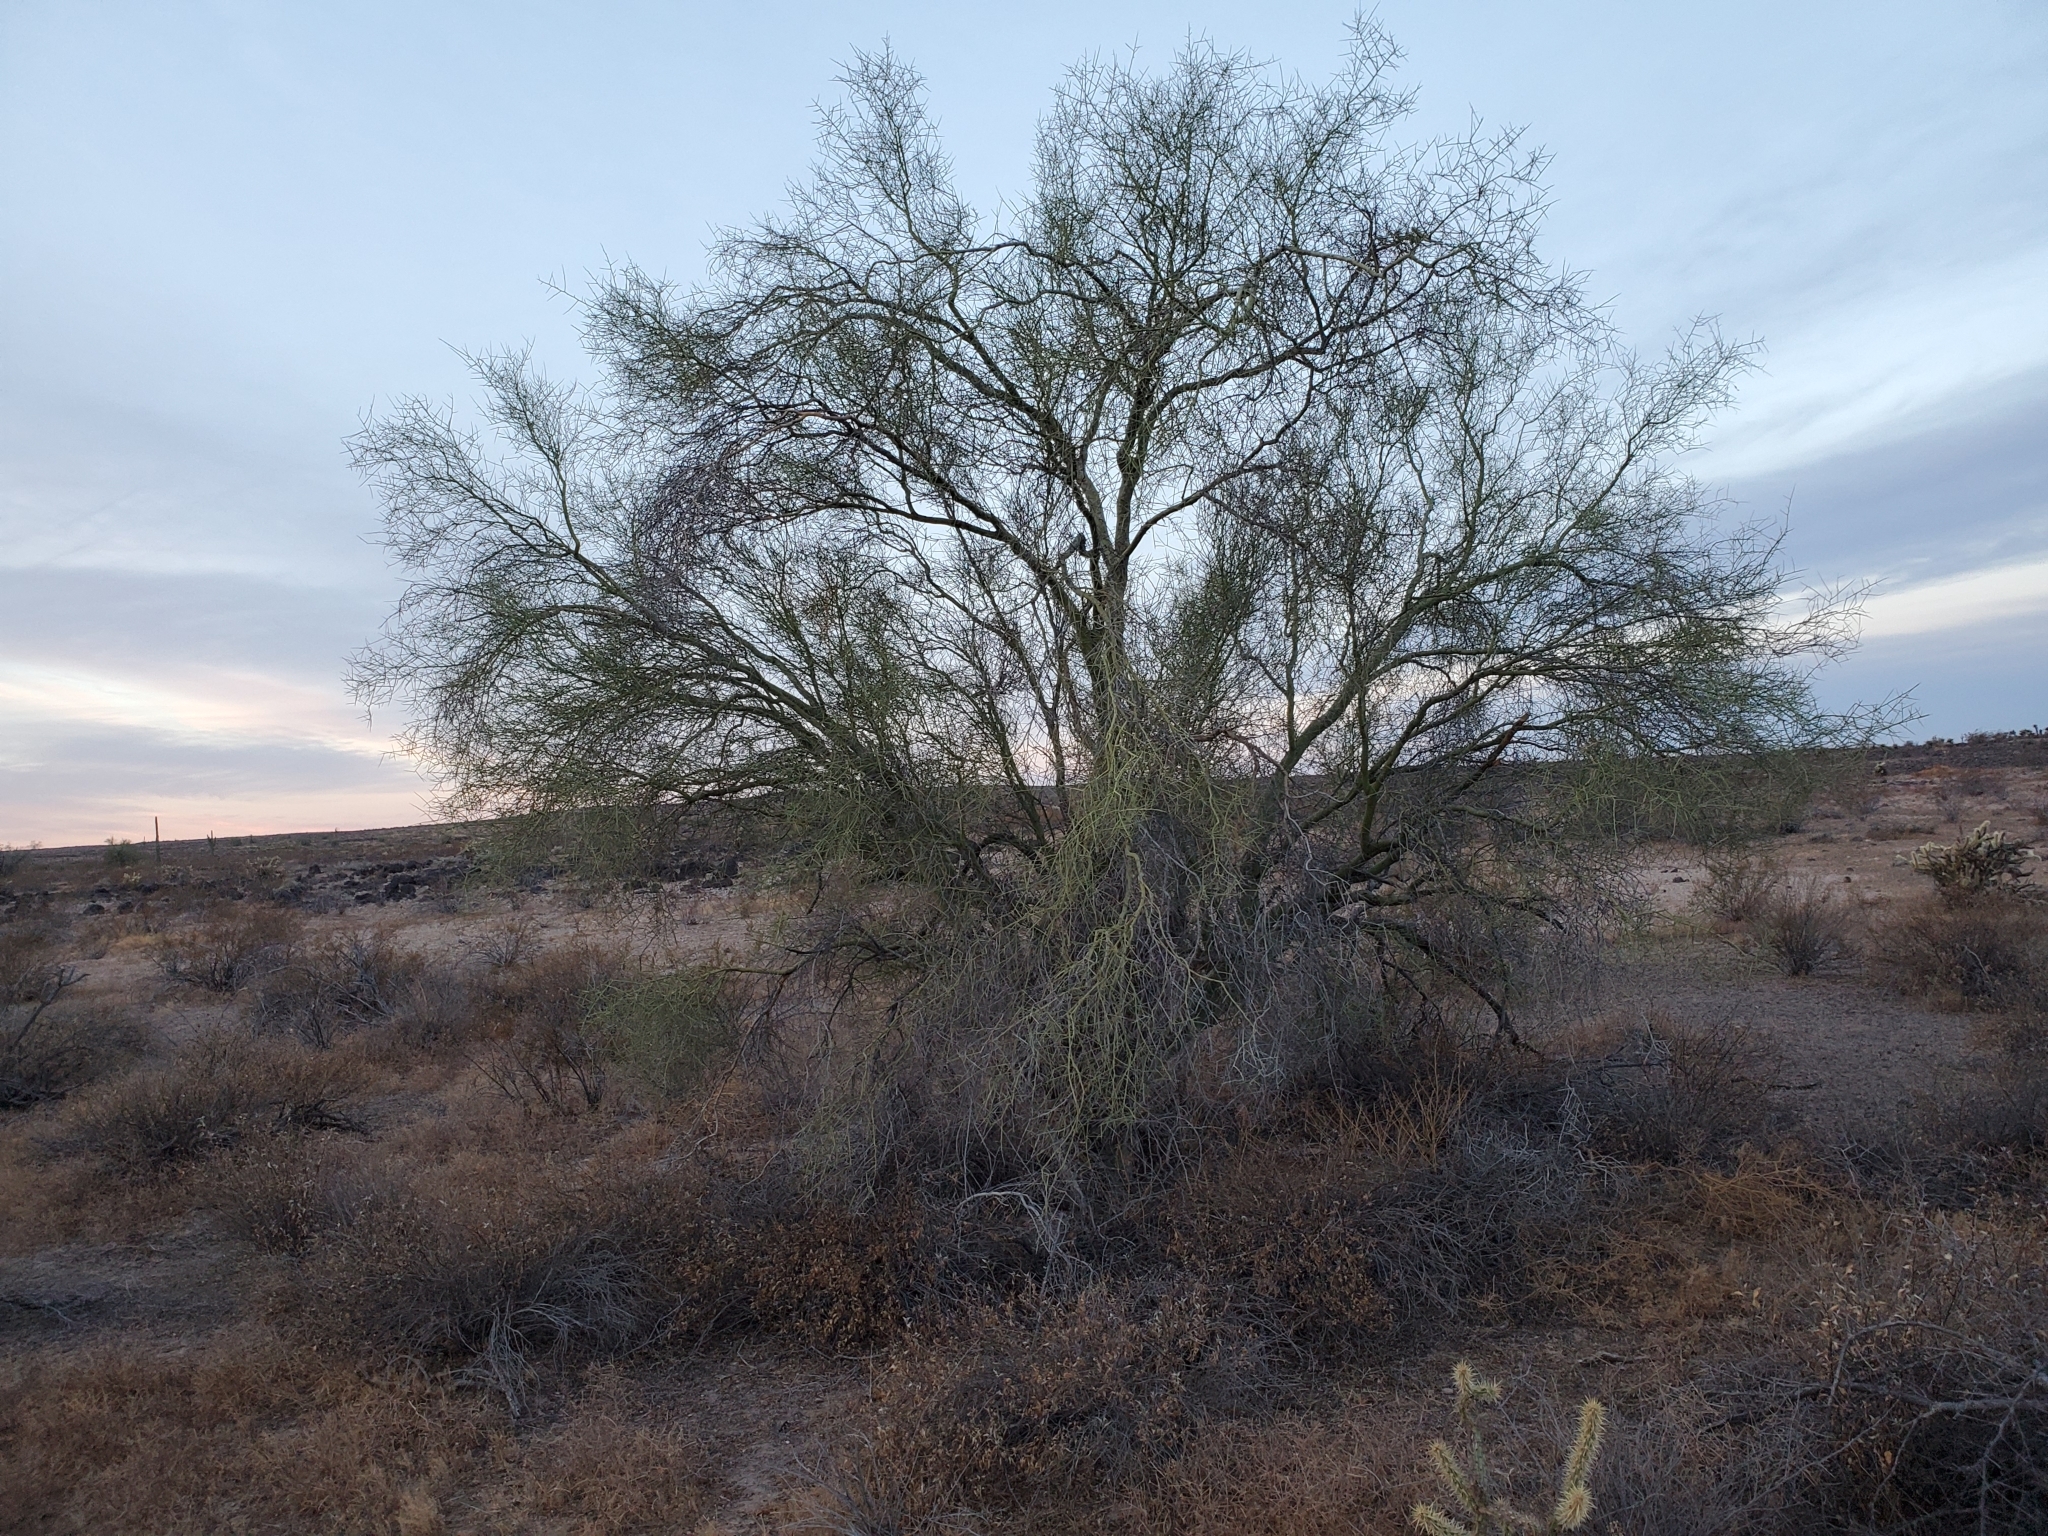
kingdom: Plantae
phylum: Tracheophyta
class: Magnoliopsida
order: Fabales
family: Fabaceae
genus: Parkinsonia
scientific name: Parkinsonia microphylla
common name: Yellow paloverde
